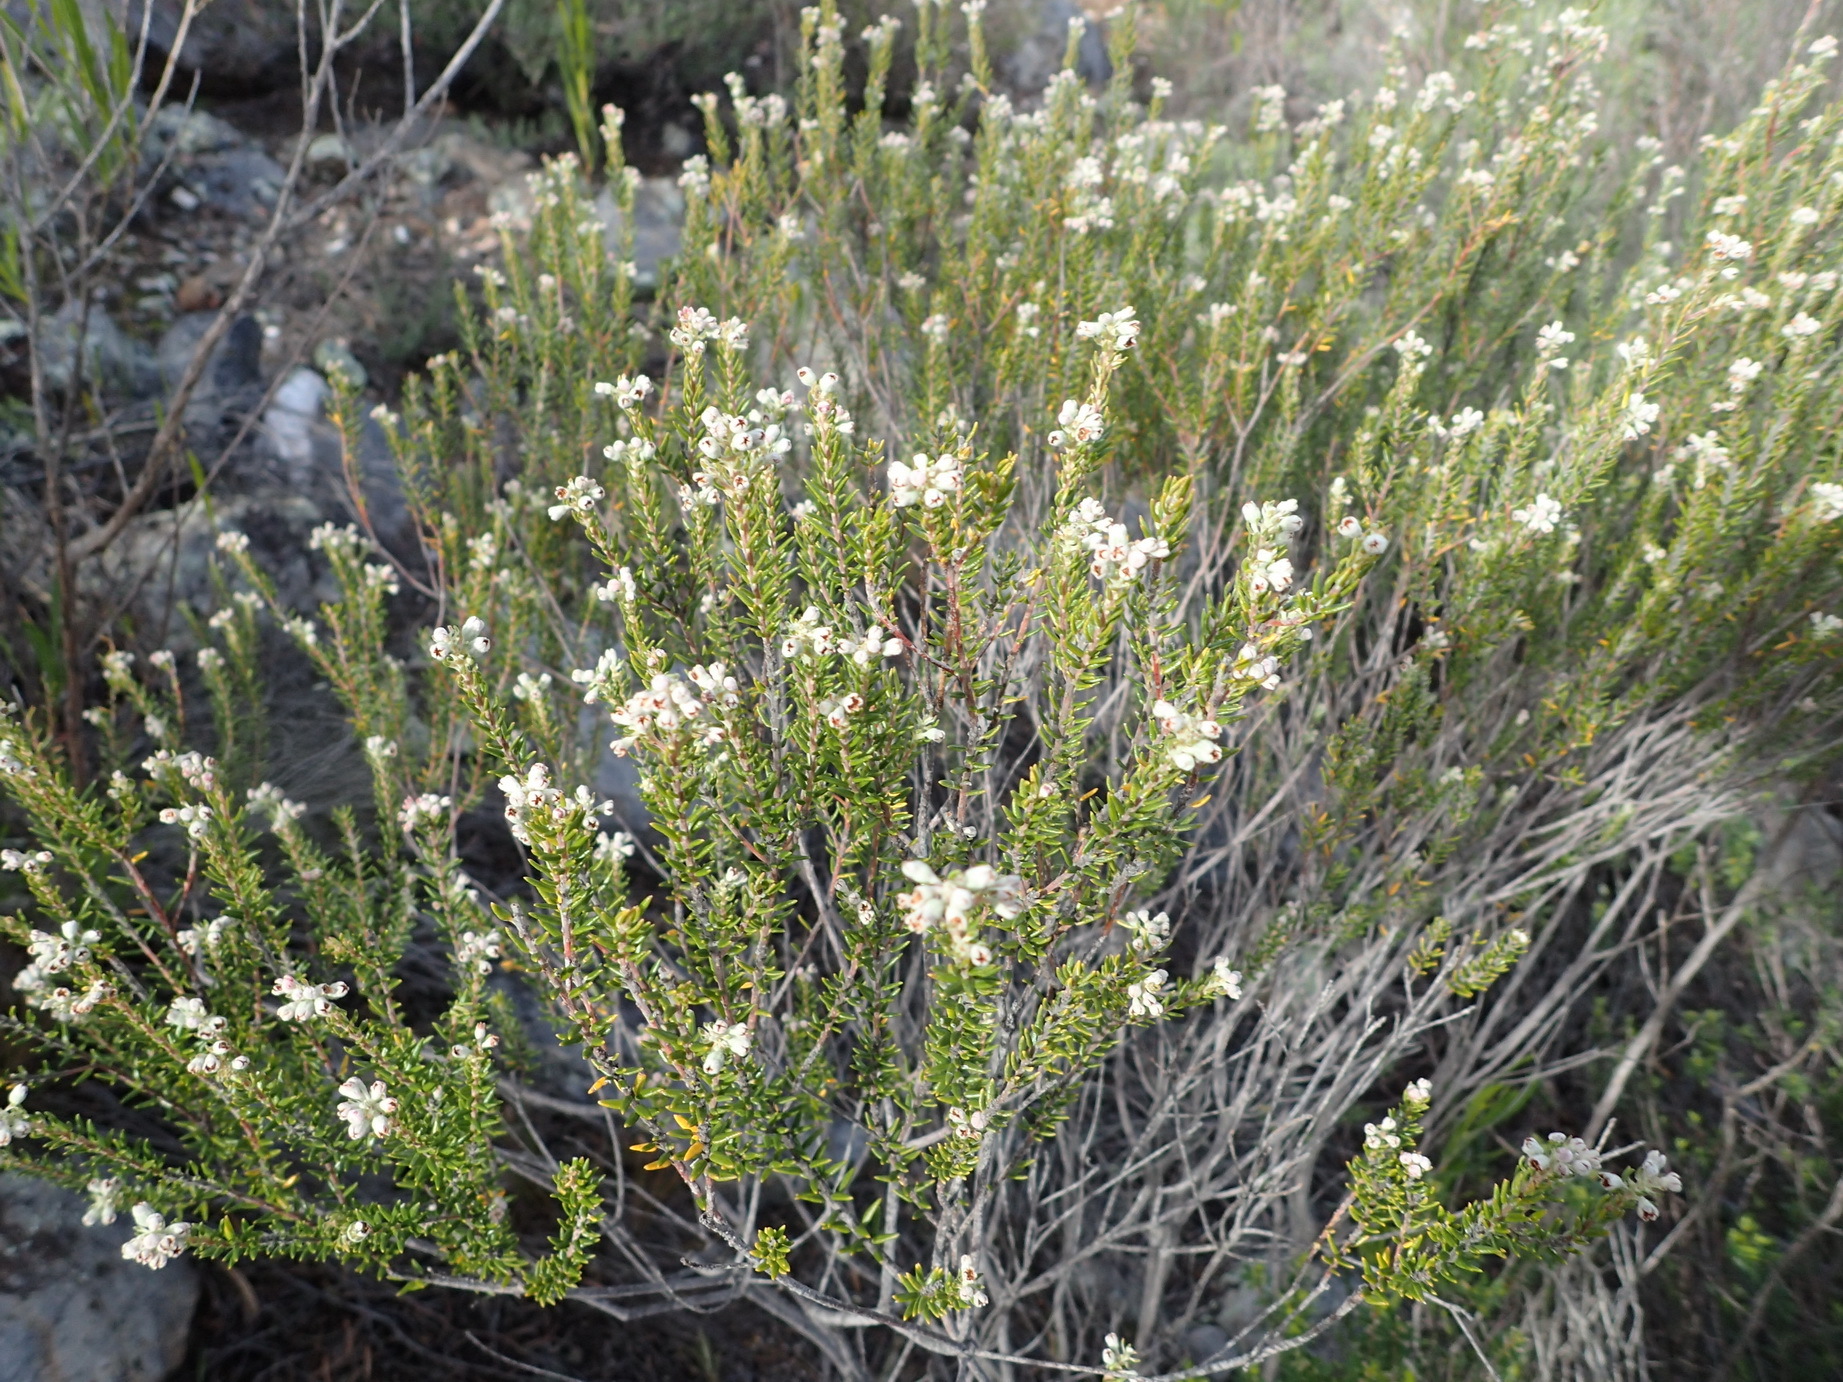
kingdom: Plantae
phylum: Tracheophyta
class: Magnoliopsida
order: Rosales
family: Rhamnaceae
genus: Phylica
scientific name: Phylica pinea
